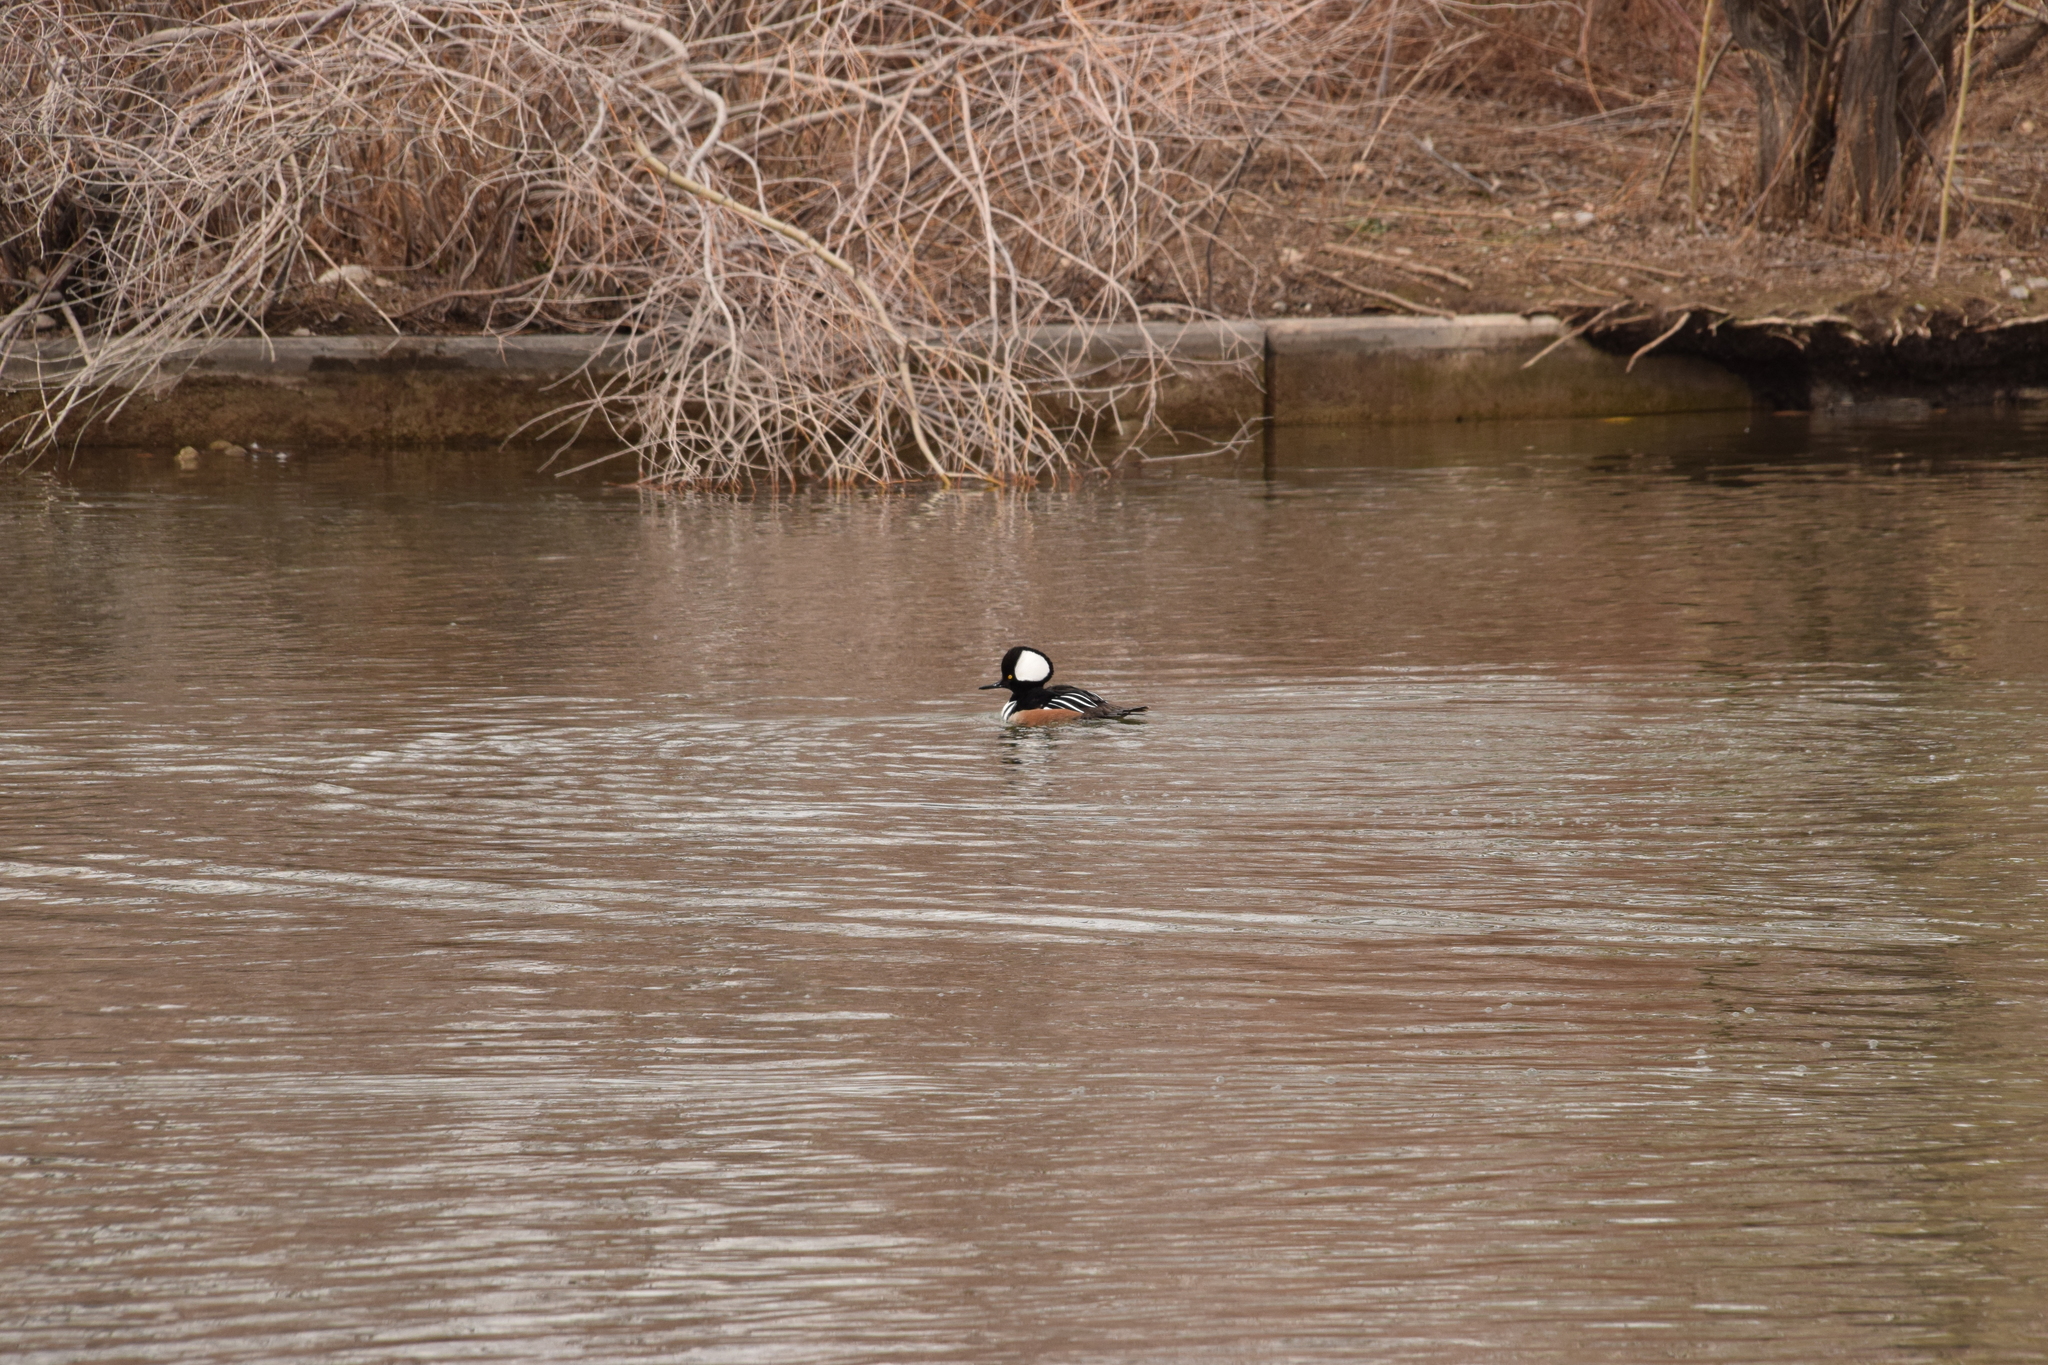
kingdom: Animalia
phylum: Chordata
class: Aves
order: Anseriformes
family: Anatidae
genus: Lophodytes
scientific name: Lophodytes cucullatus
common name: Hooded merganser
